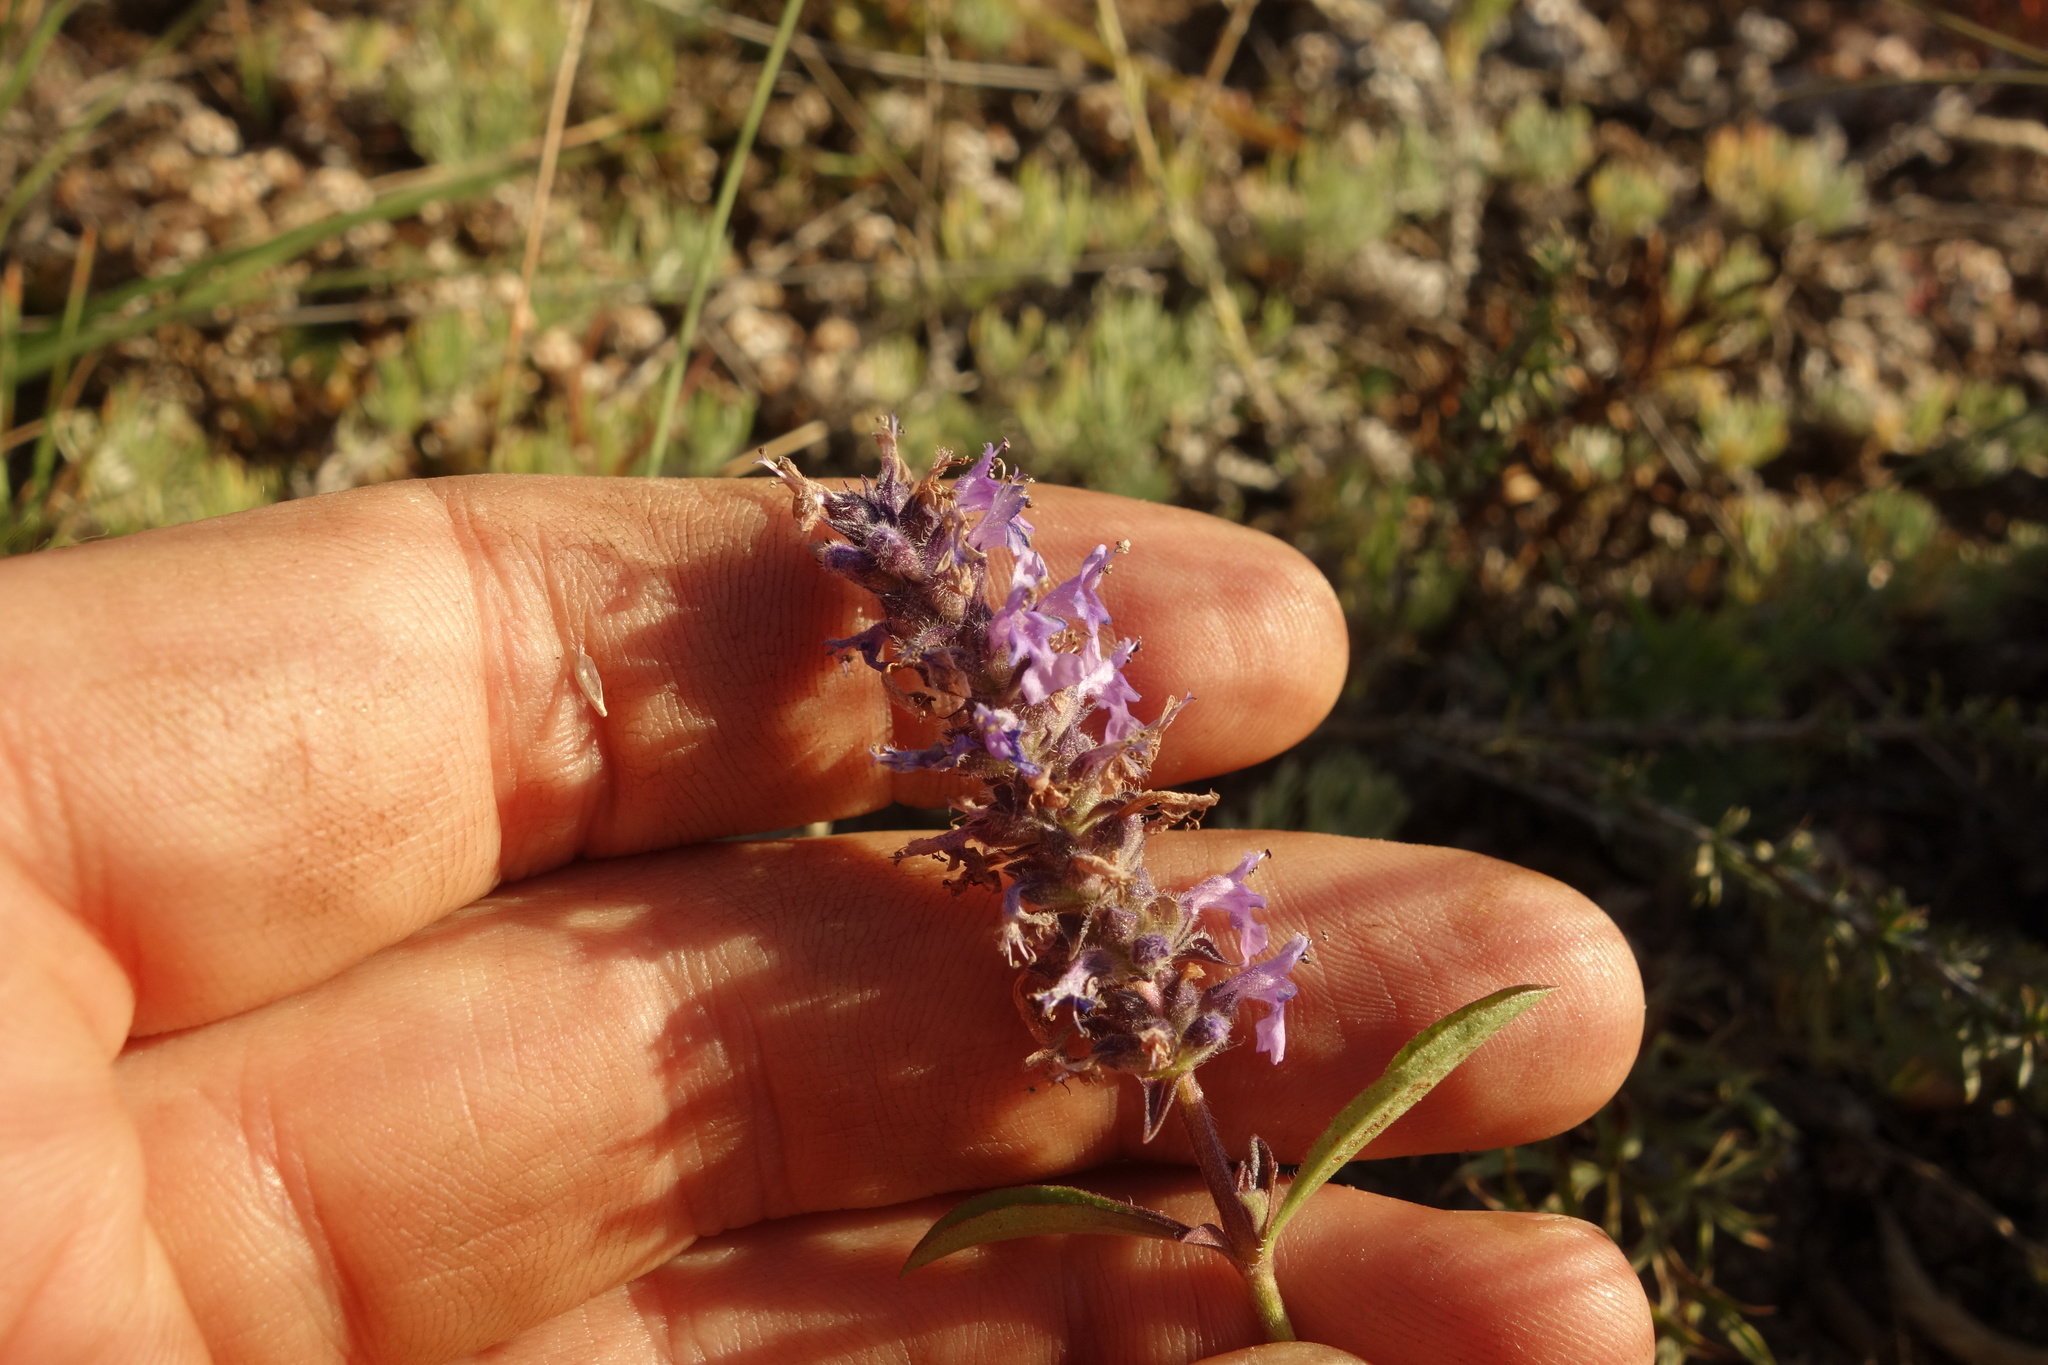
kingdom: Plantae
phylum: Tracheophyta
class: Magnoliopsida
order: Lamiales
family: Lamiaceae
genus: Nepeta
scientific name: Nepeta multifida
